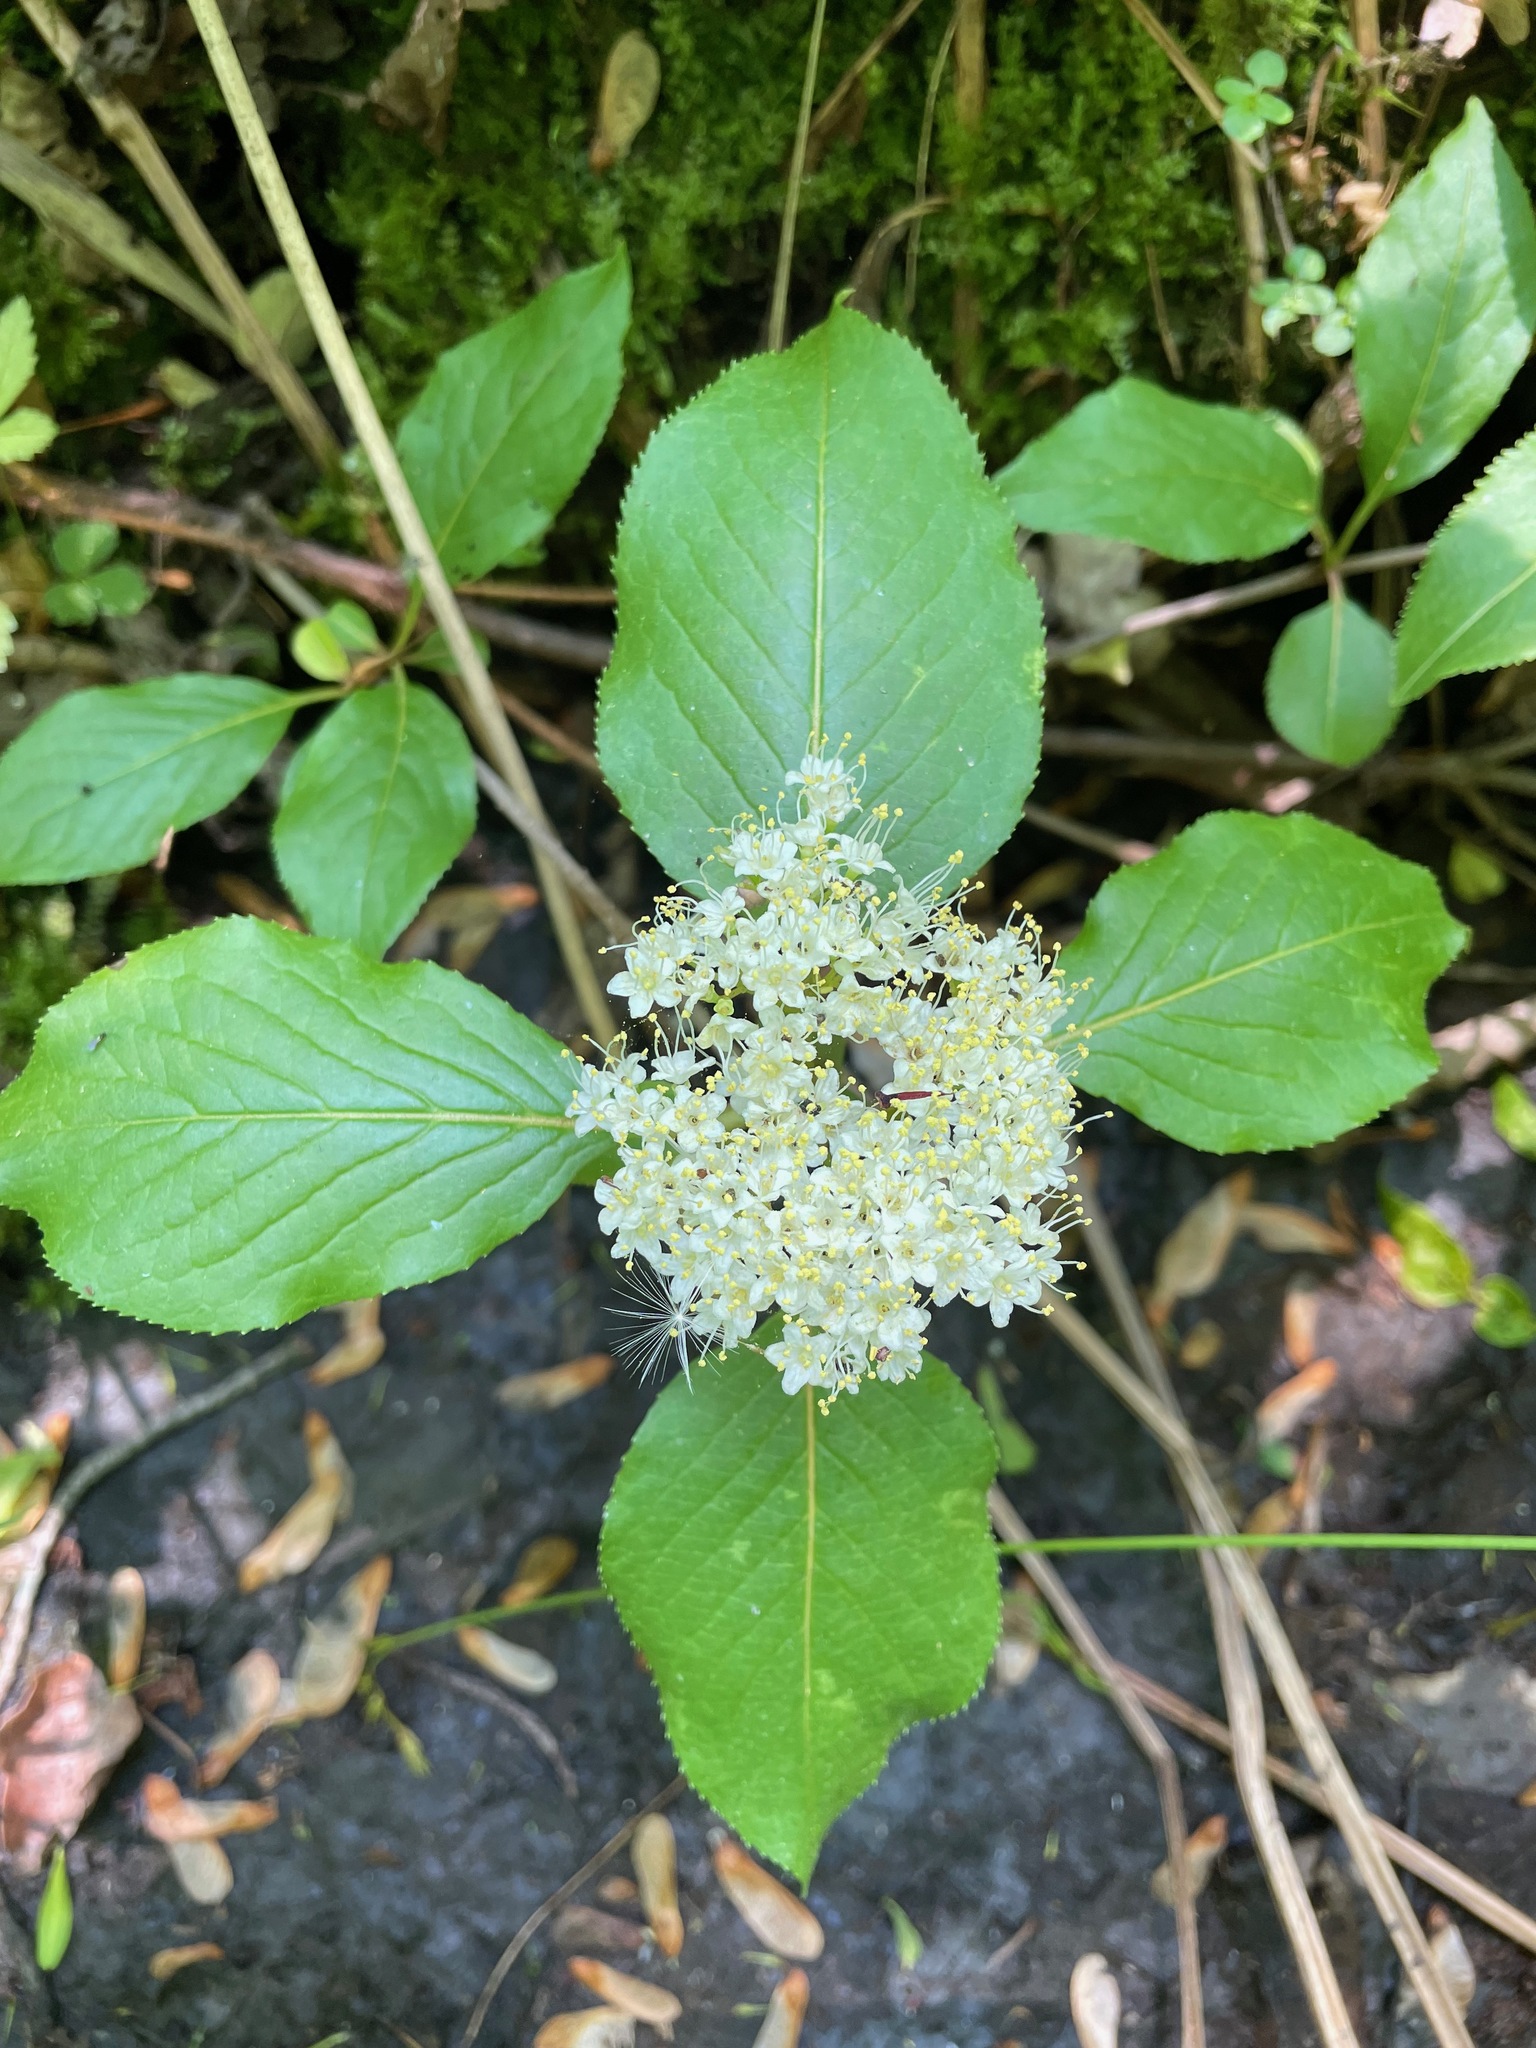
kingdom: Plantae
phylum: Tracheophyta
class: Magnoliopsida
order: Dipsacales
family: Viburnaceae
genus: Viburnum
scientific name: Viburnum lentago
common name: Black haw
